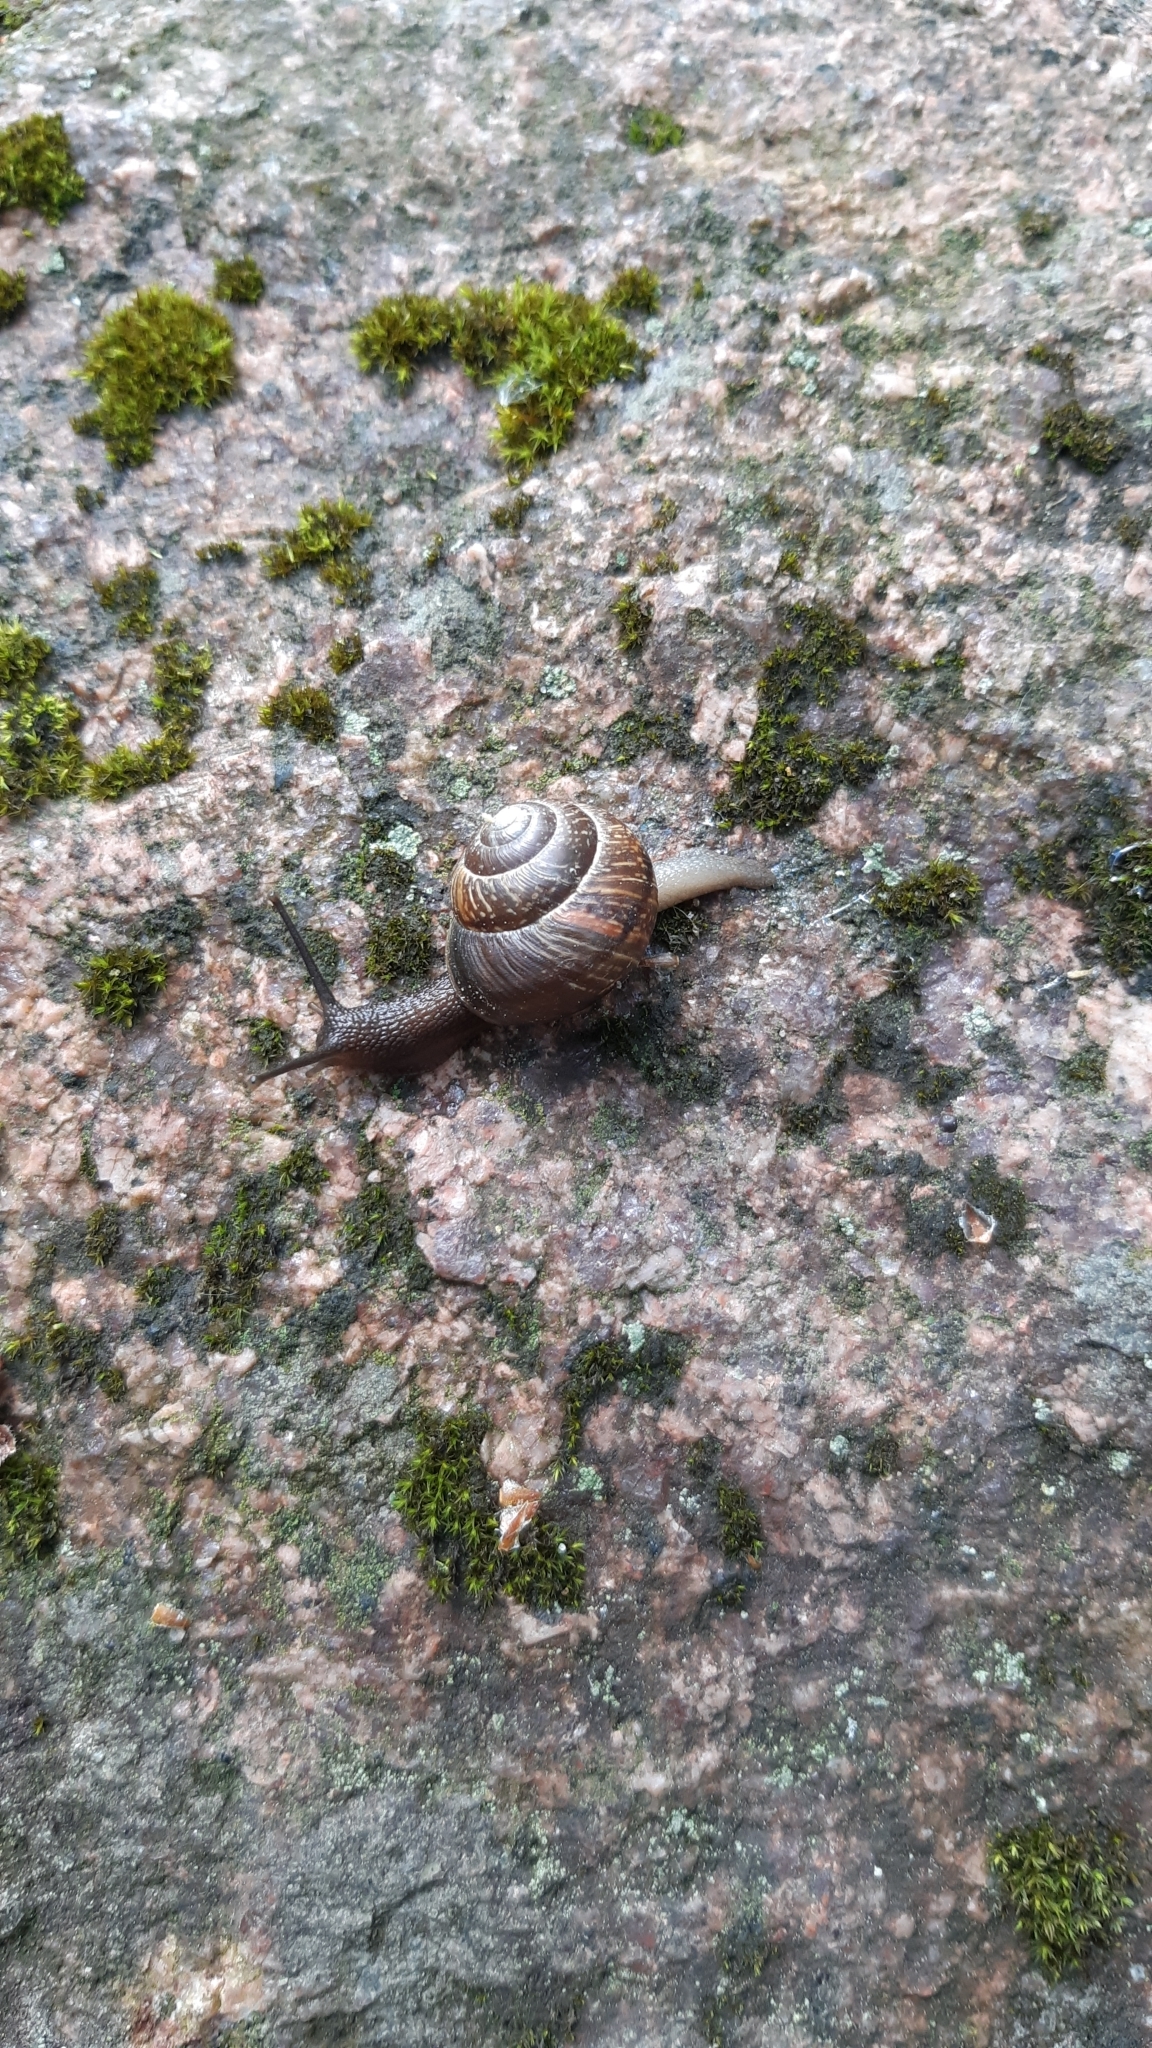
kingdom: Animalia
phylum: Mollusca
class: Gastropoda
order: Stylommatophora
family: Helicidae
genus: Arianta
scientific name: Arianta arbustorum
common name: Copse snail
